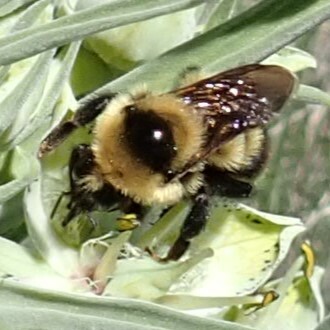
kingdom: Animalia
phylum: Arthropoda
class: Insecta
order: Hymenoptera
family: Apidae
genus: Bombus
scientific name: Bombus rufocinctus
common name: Red-belted bumble bee
